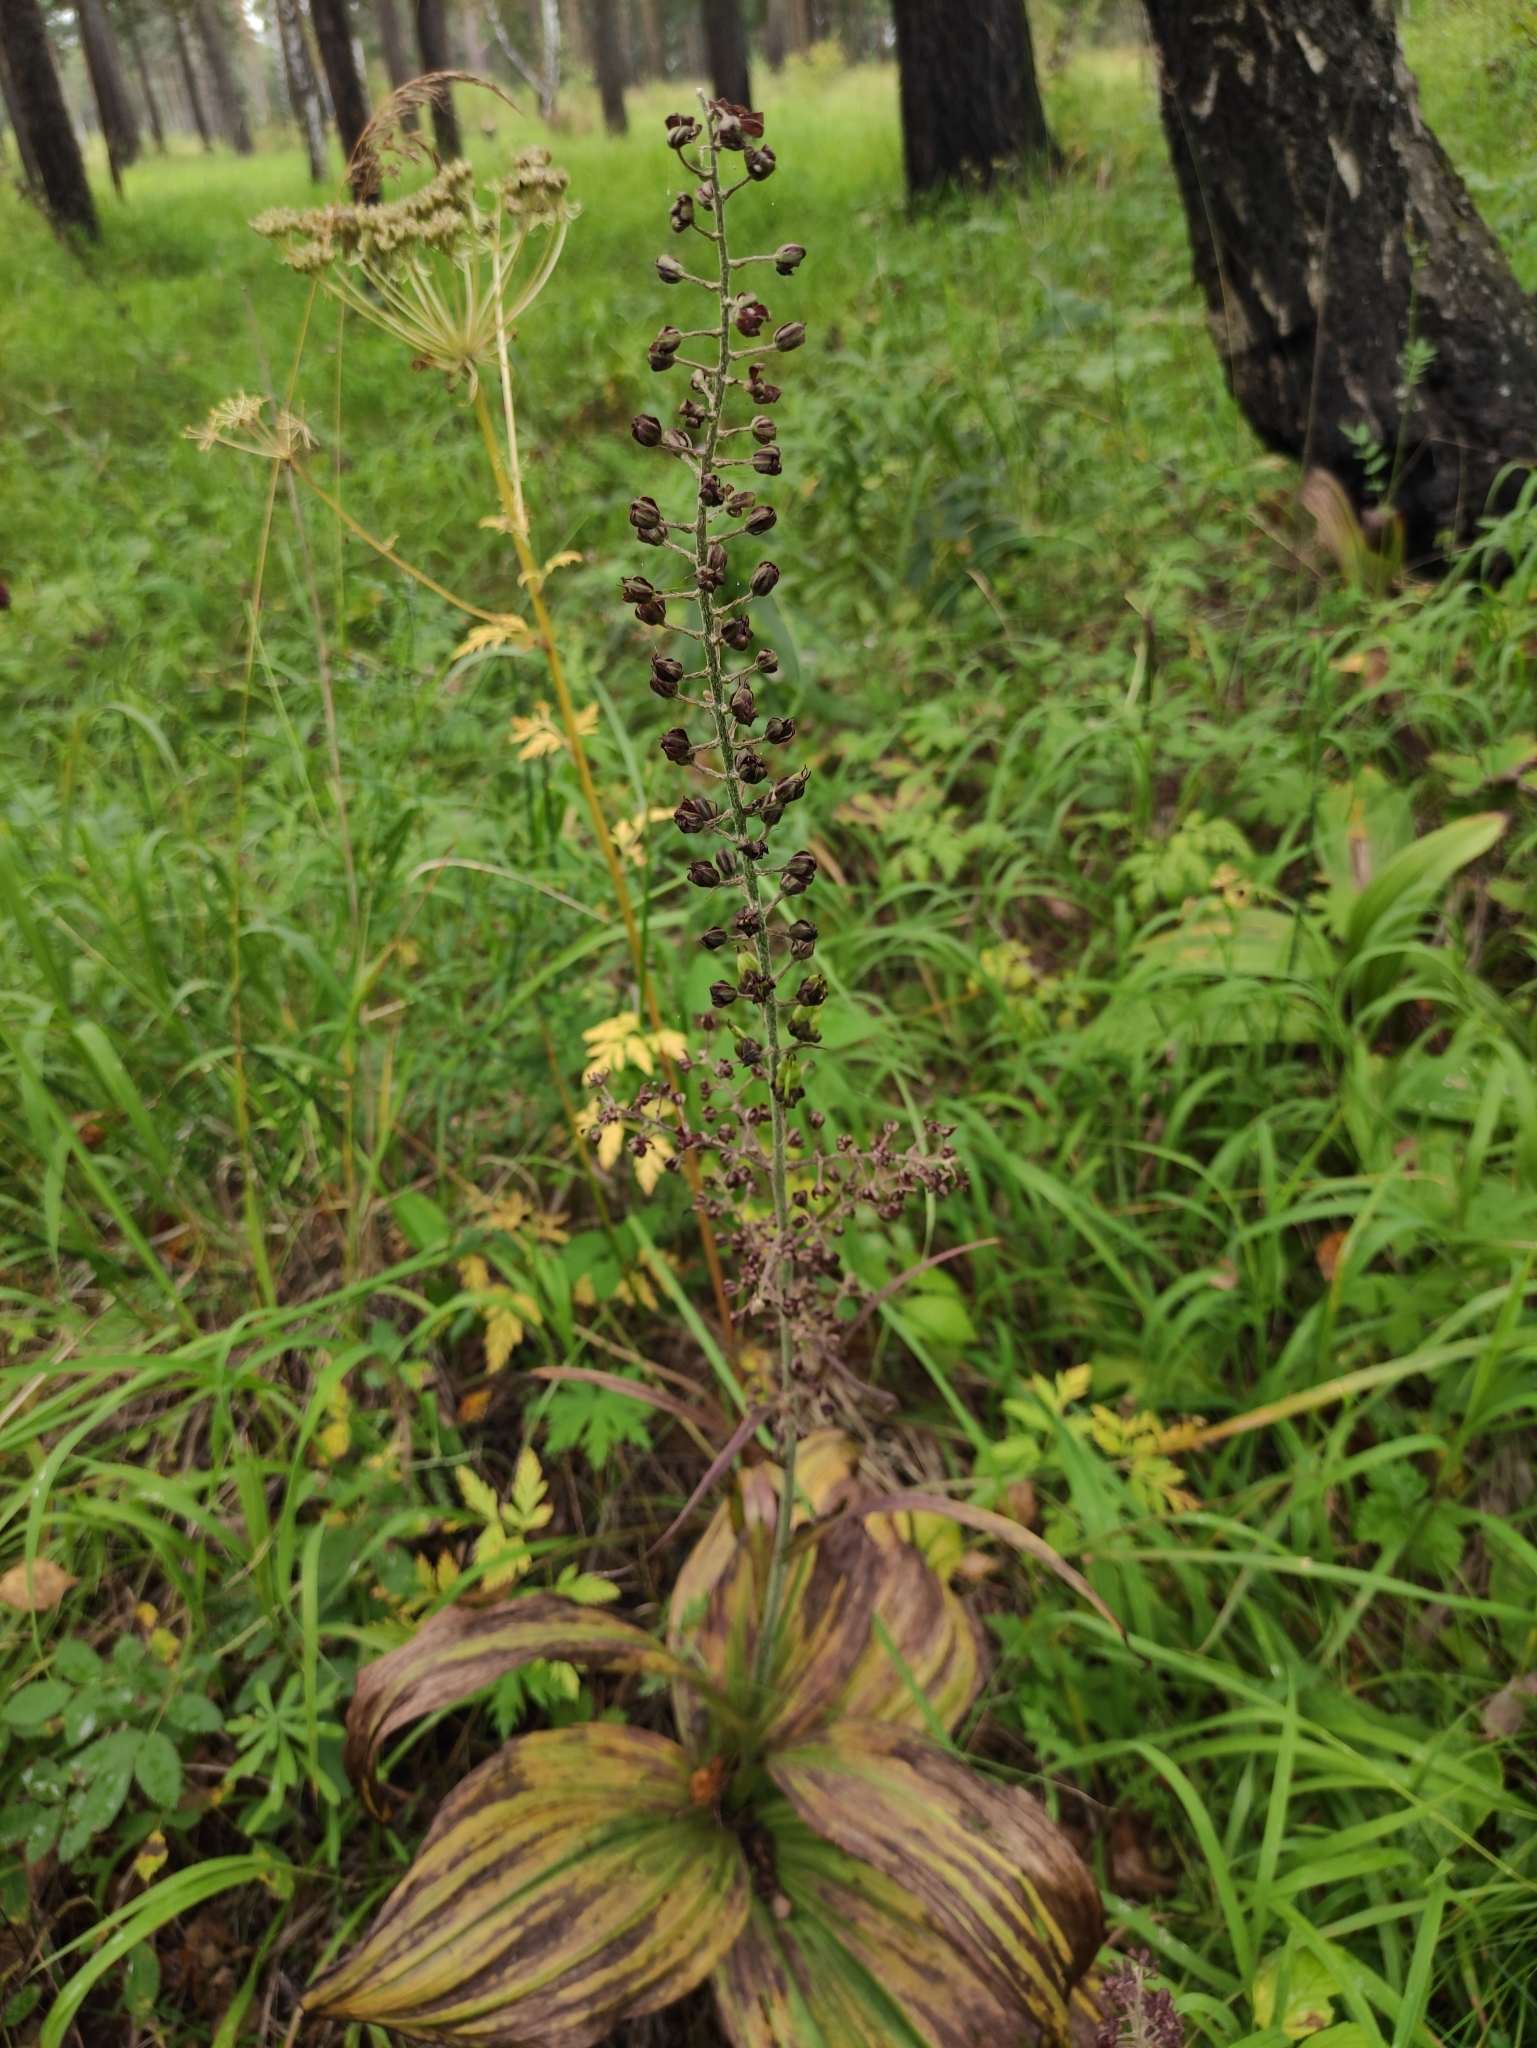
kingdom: Plantae
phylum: Tracheophyta
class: Liliopsida
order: Liliales
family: Melanthiaceae
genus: Veratrum
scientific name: Veratrum nigrum
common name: Black veratrum
